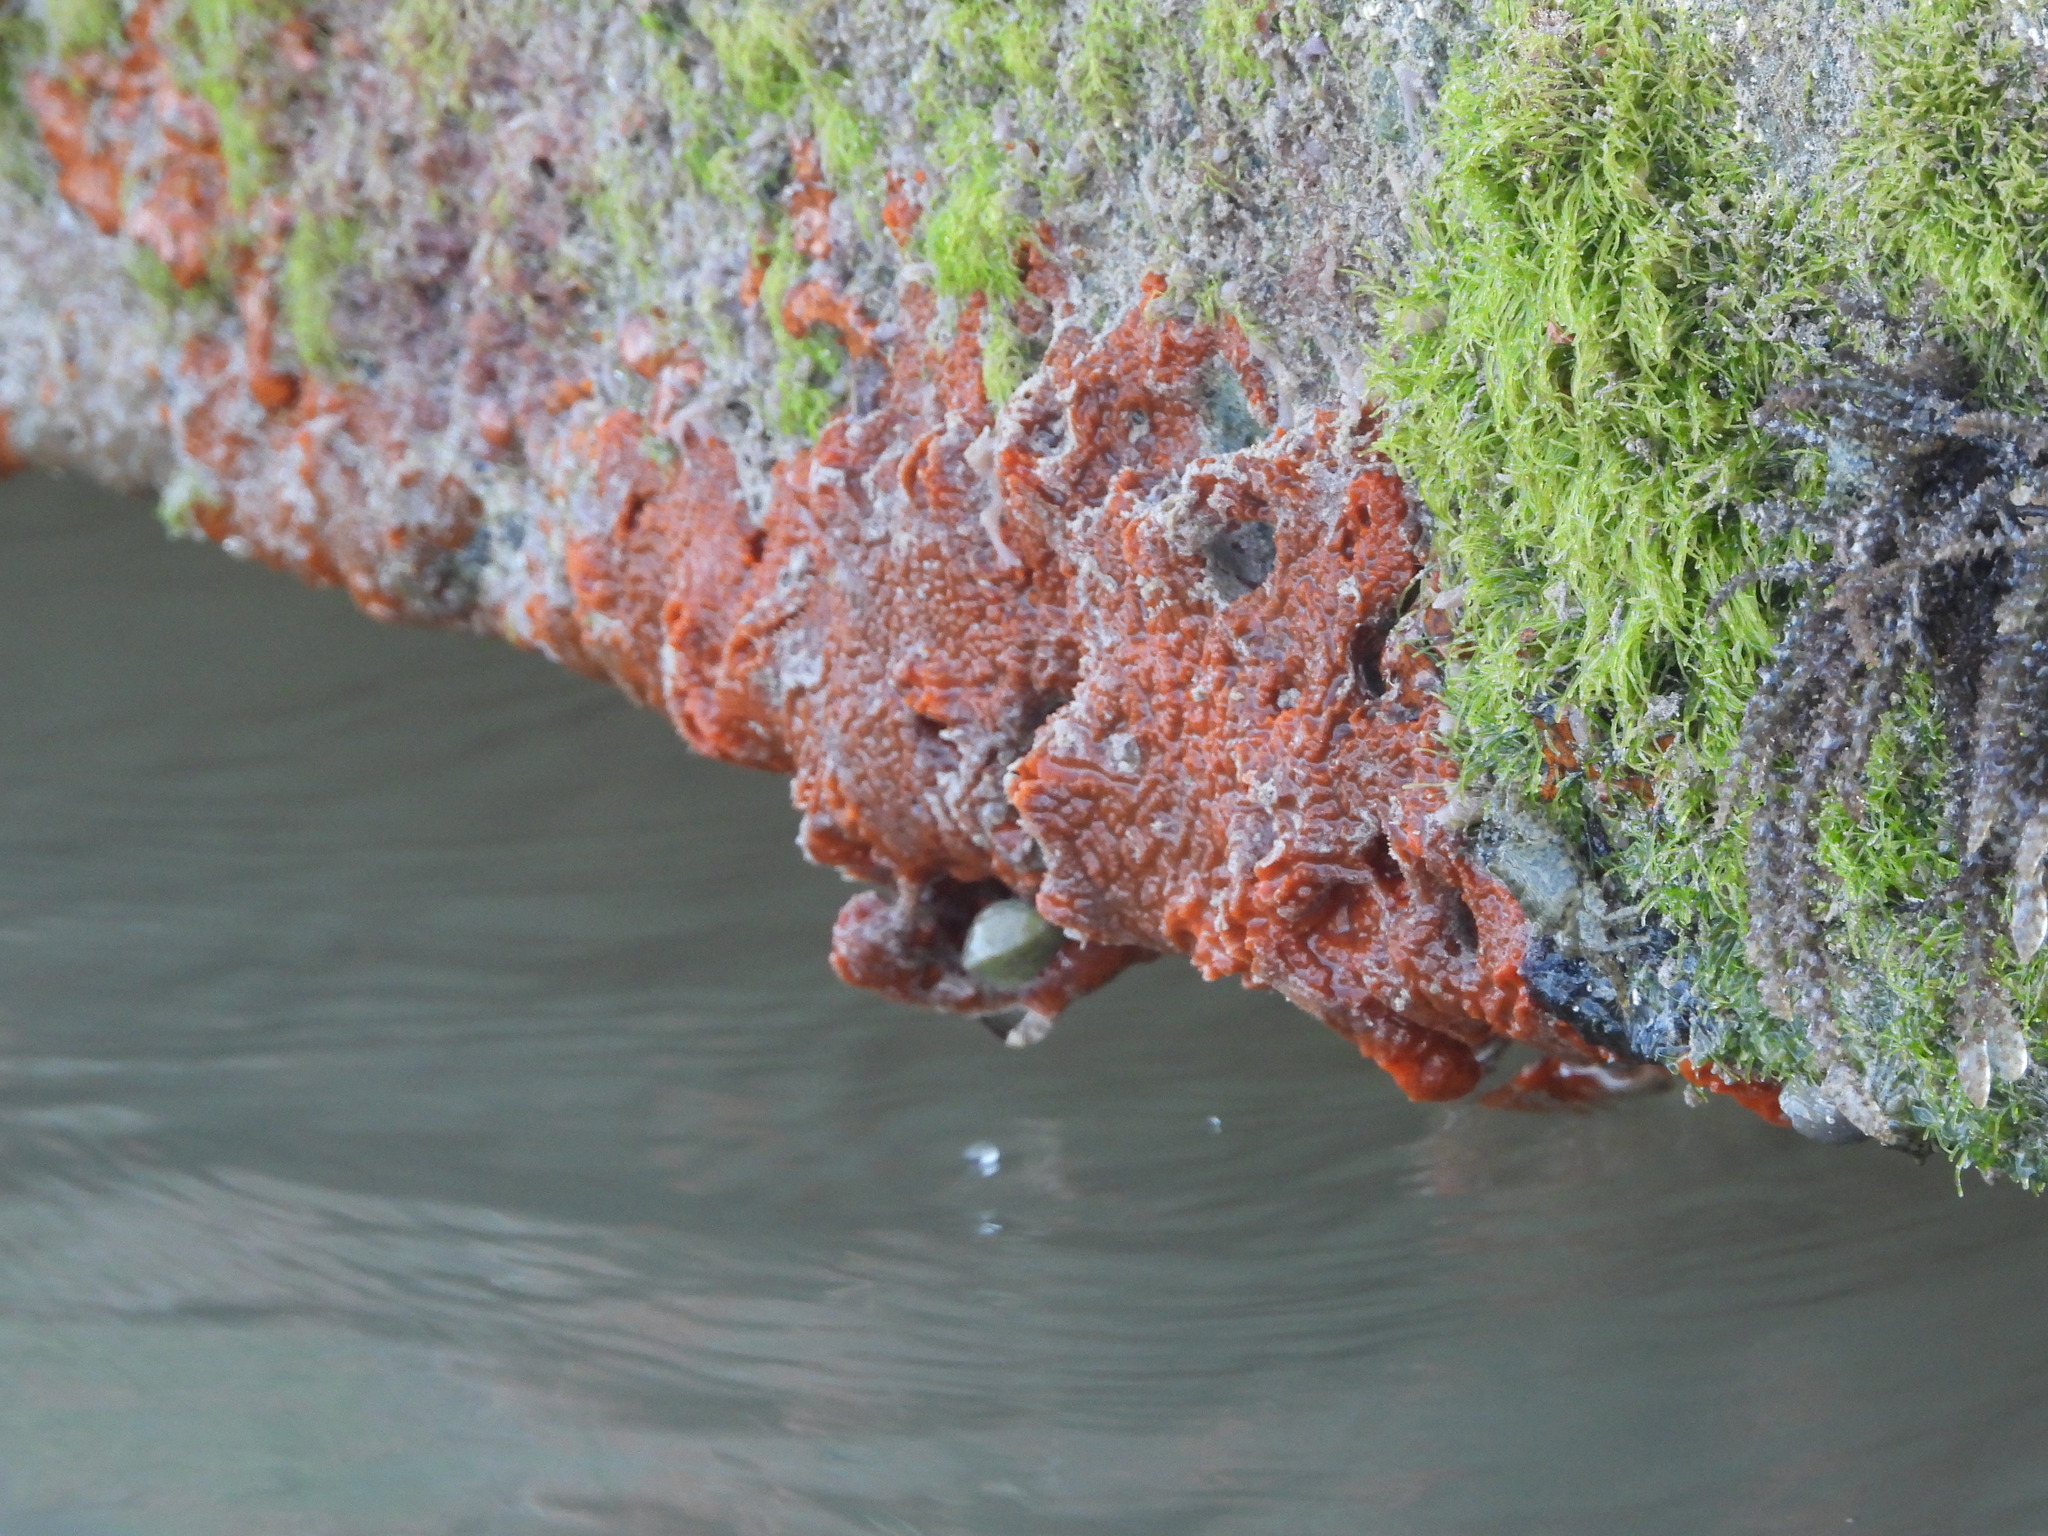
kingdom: Animalia
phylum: Porifera
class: Demospongiae
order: Poecilosclerida
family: Tedaniidae
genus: Tedania
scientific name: Tedania ignis
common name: Sponge
